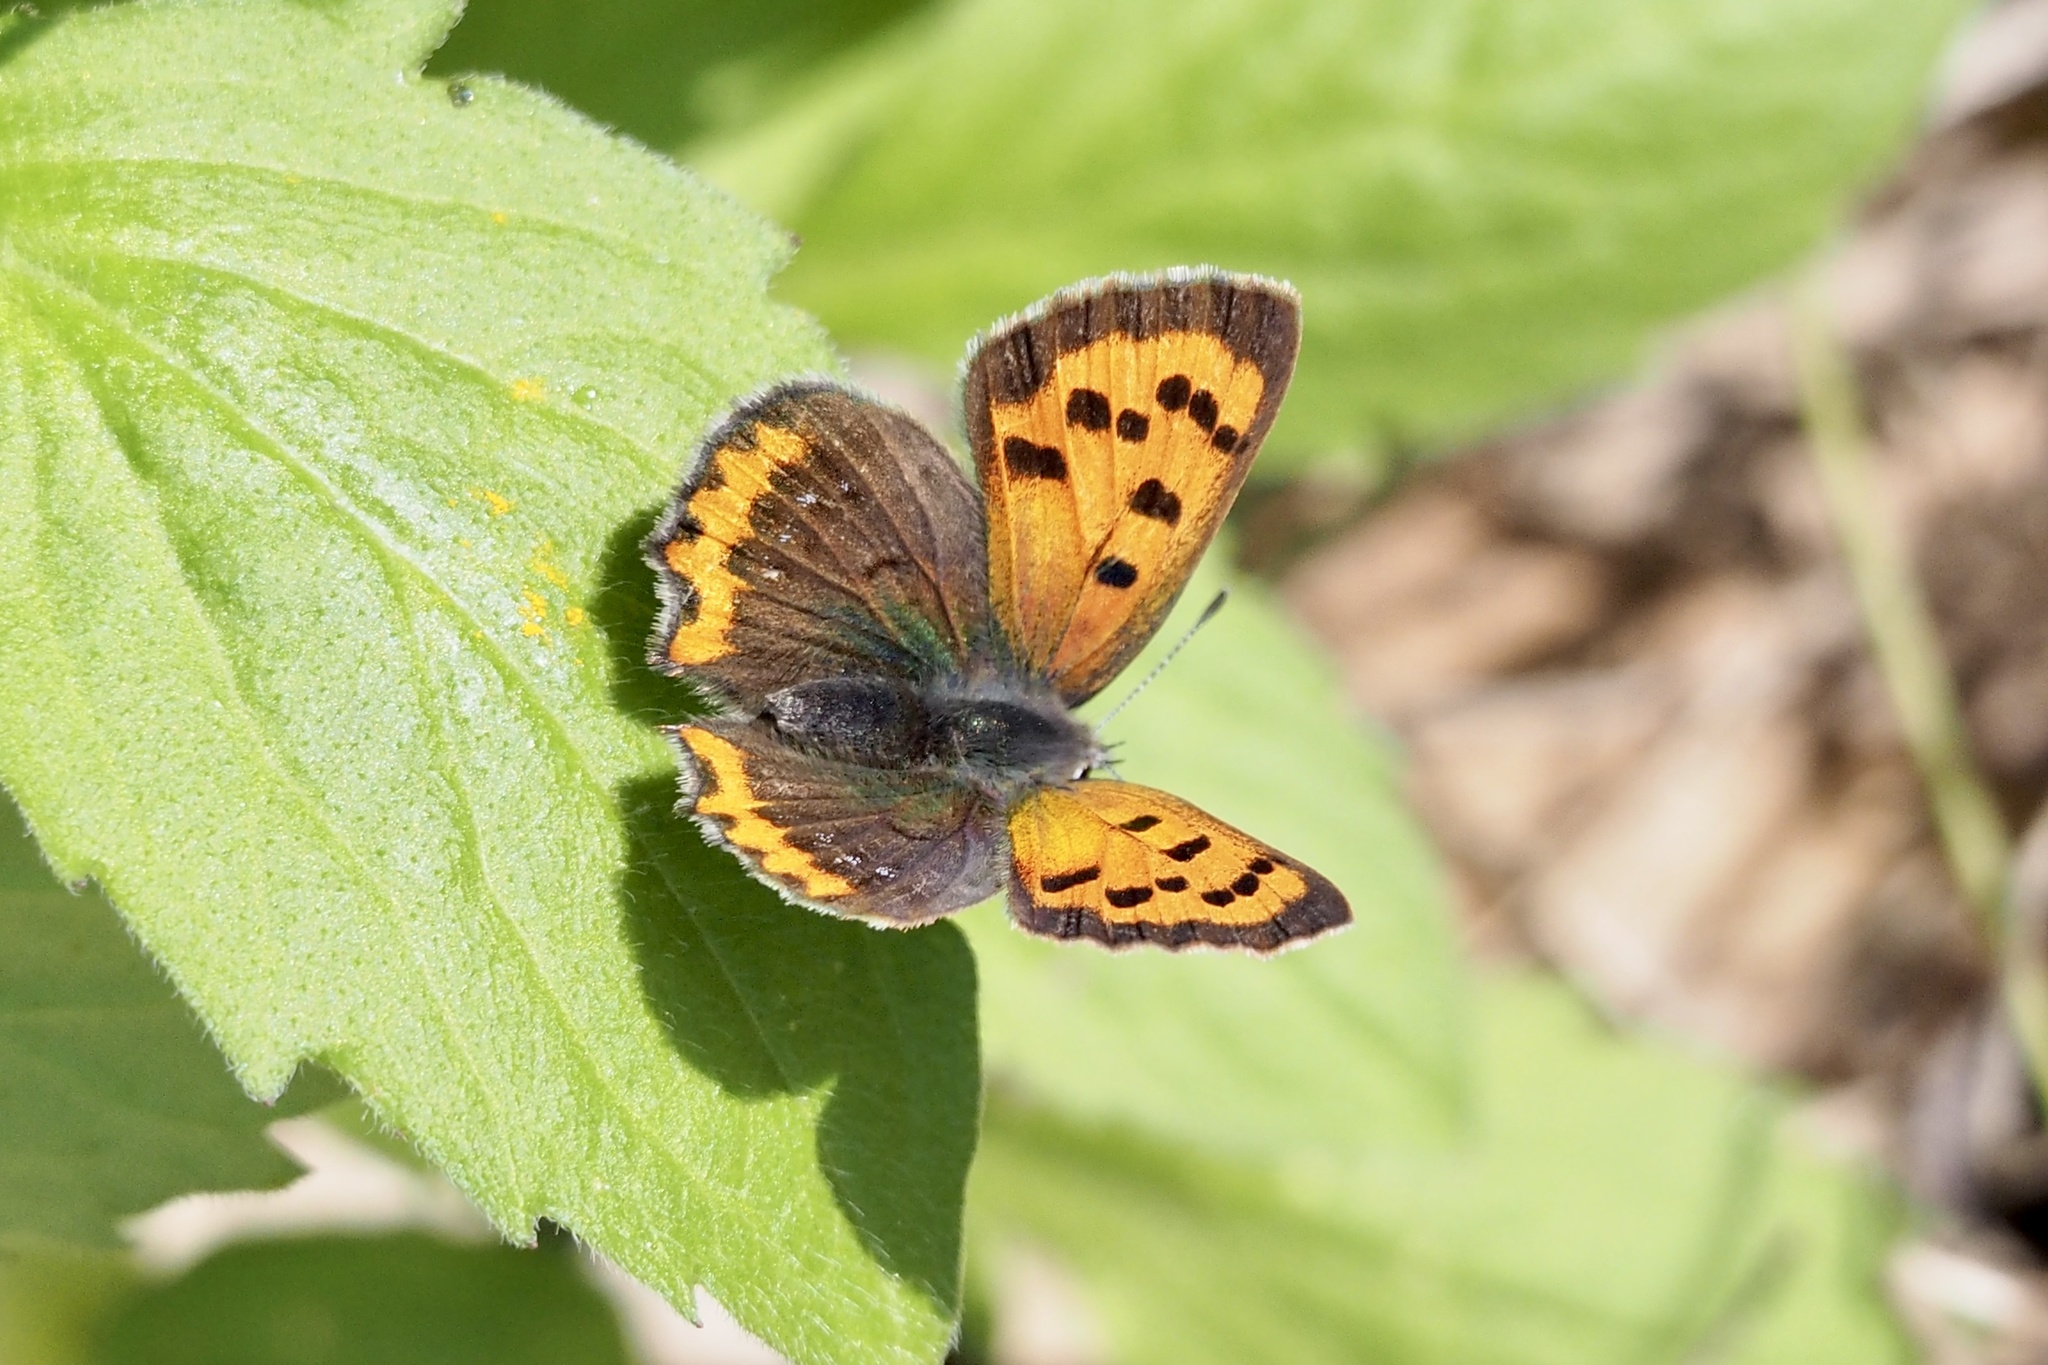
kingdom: Animalia
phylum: Arthropoda
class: Insecta
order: Lepidoptera
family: Lycaenidae
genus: Lycaena
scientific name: Lycaena phlaeas
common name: Small copper
